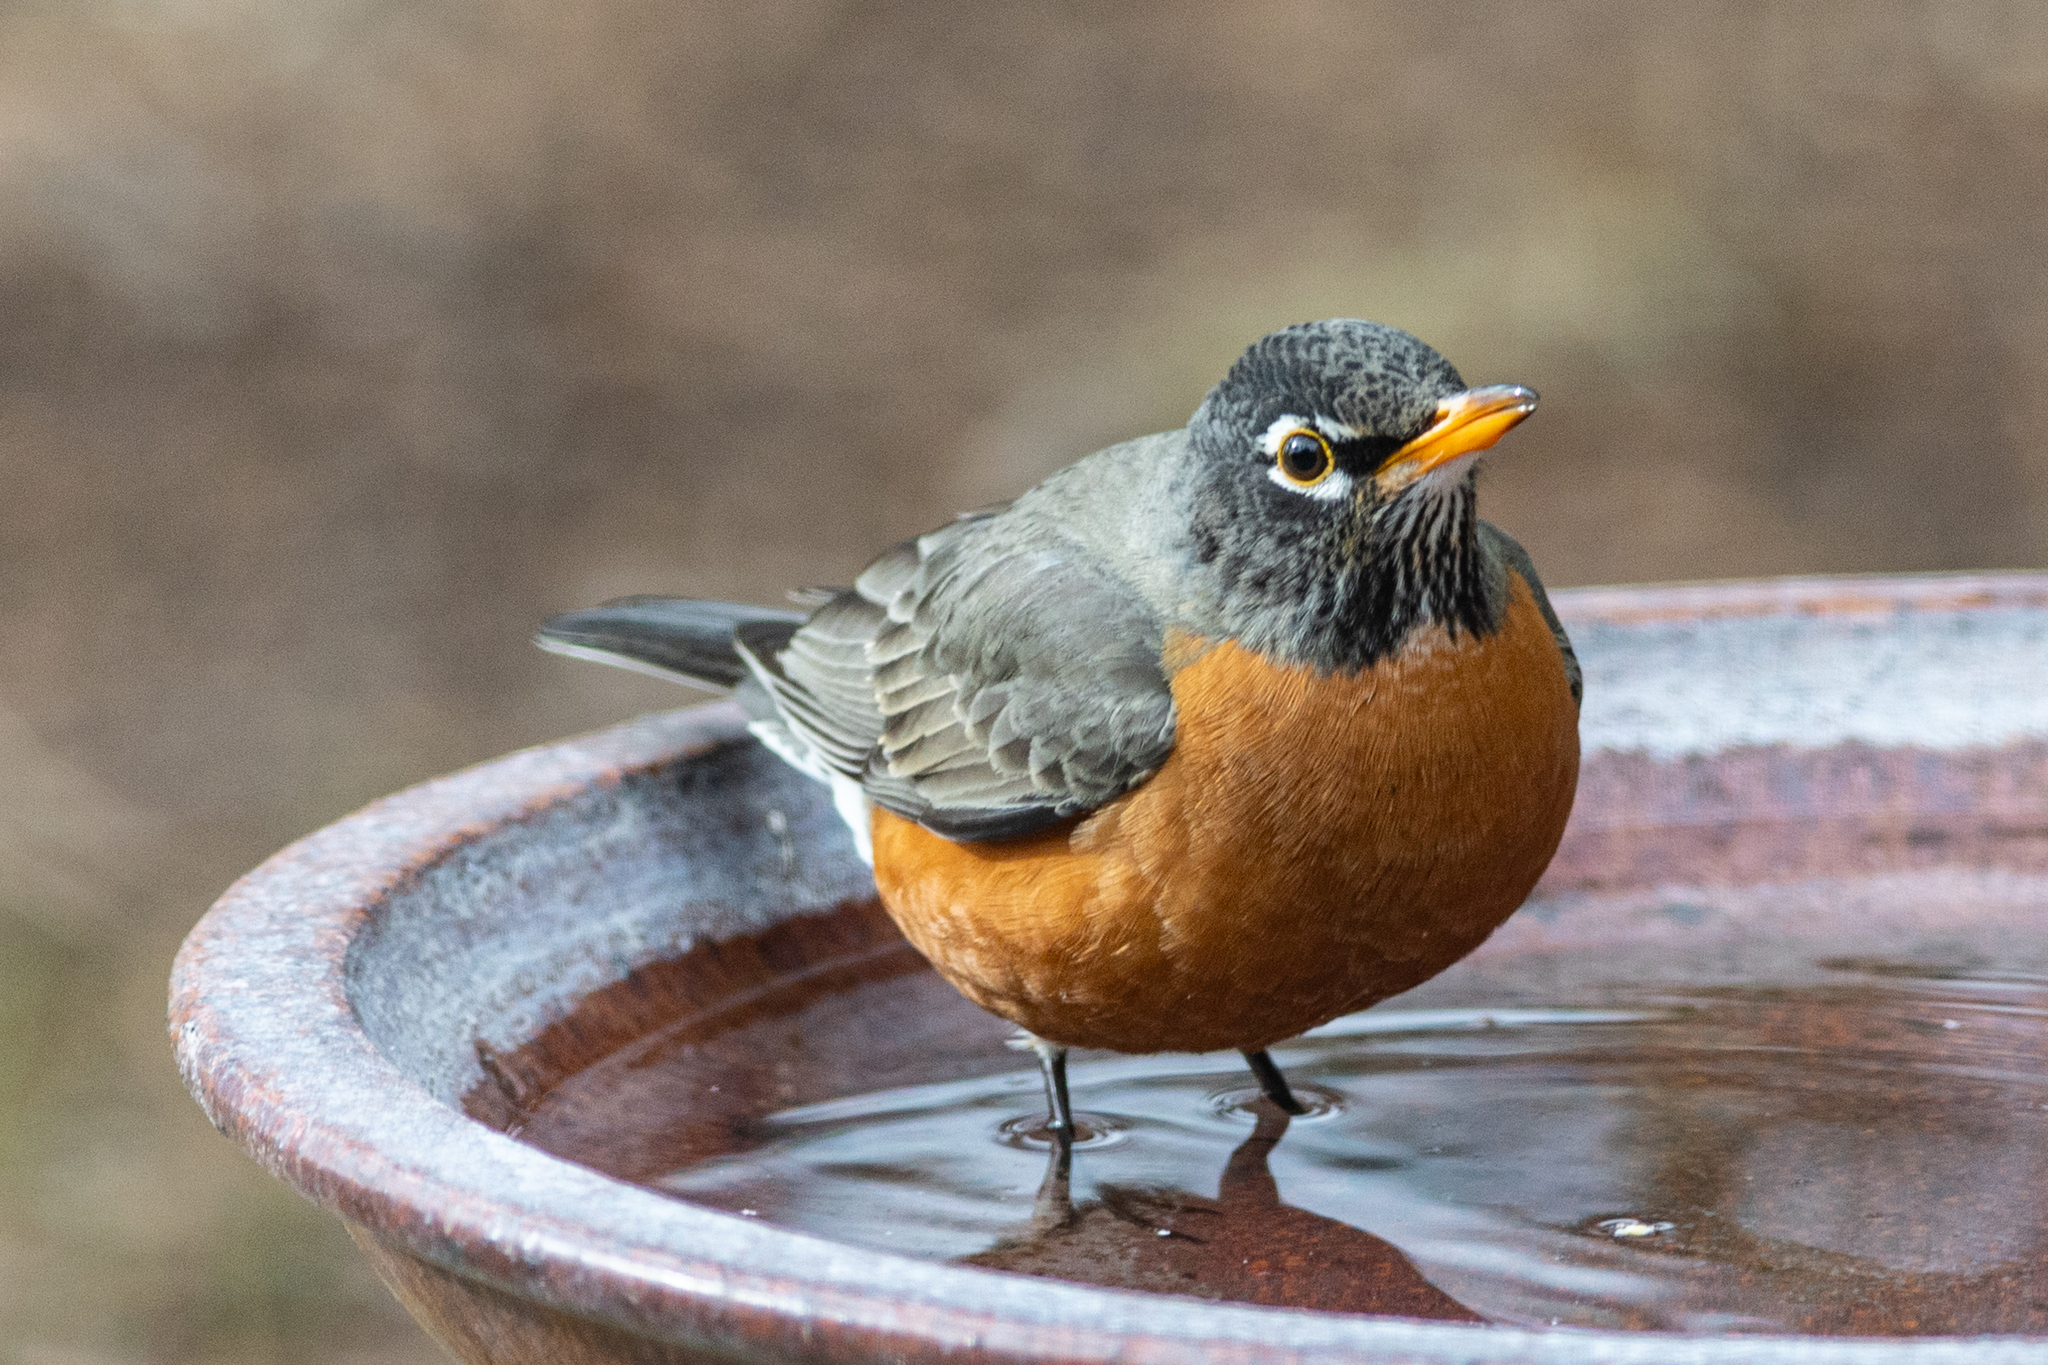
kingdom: Animalia
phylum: Chordata
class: Aves
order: Passeriformes
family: Turdidae
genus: Turdus
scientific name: Turdus migratorius
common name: American robin
